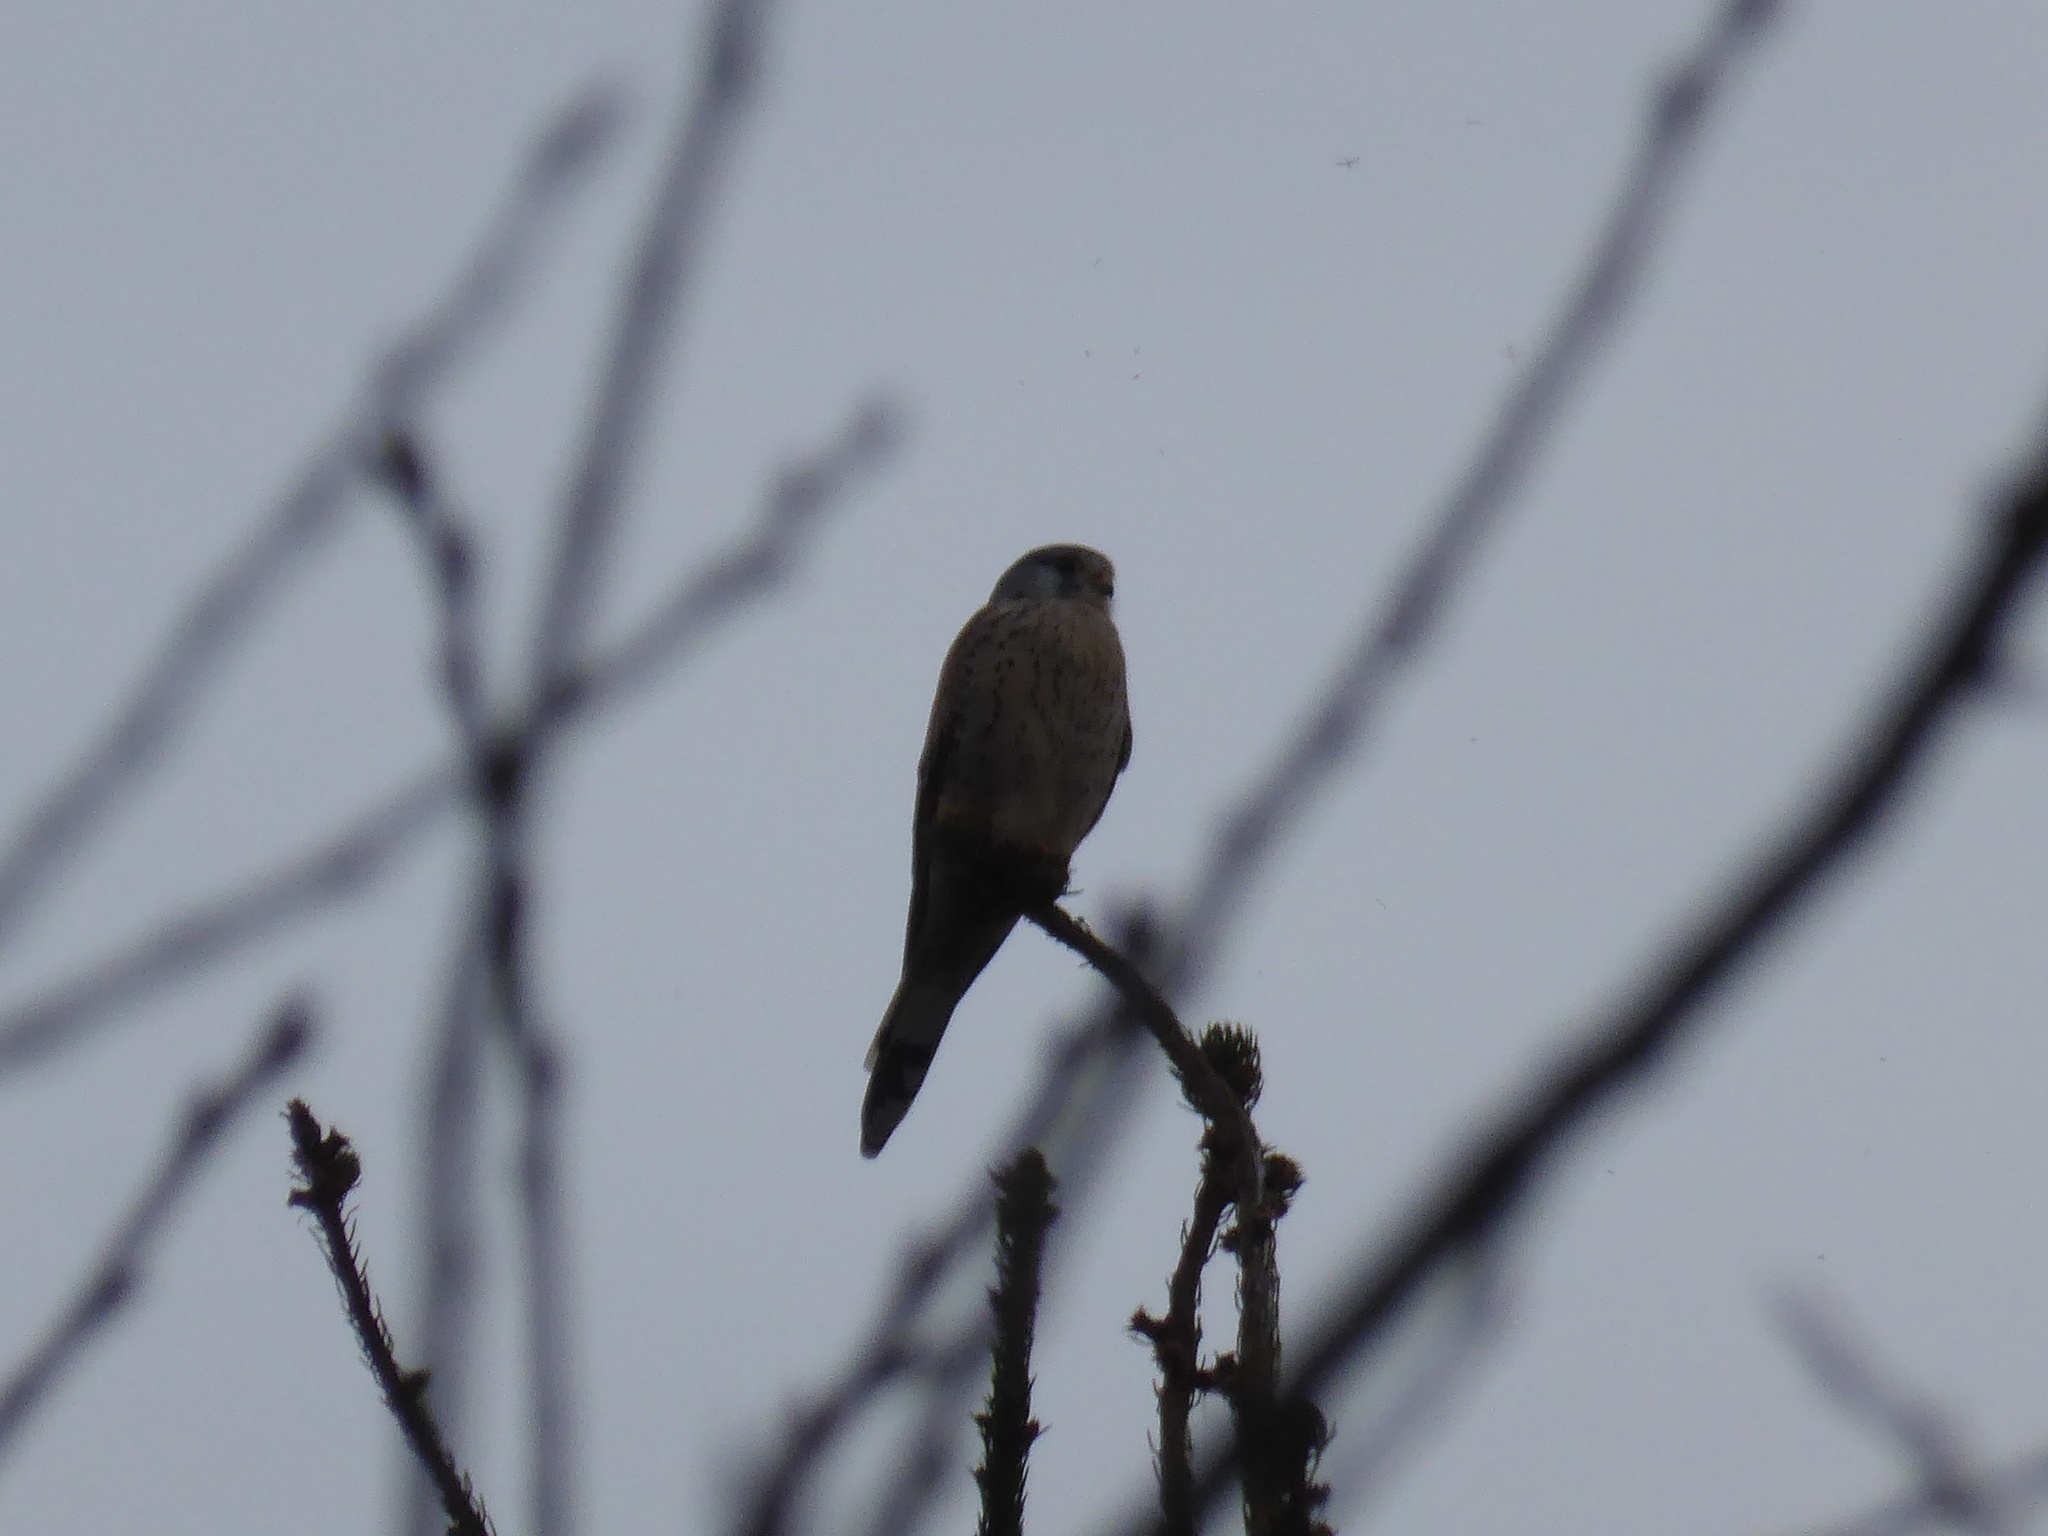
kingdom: Animalia
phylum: Chordata
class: Aves
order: Falconiformes
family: Falconidae
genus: Falco
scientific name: Falco tinnunculus
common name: Common kestrel
